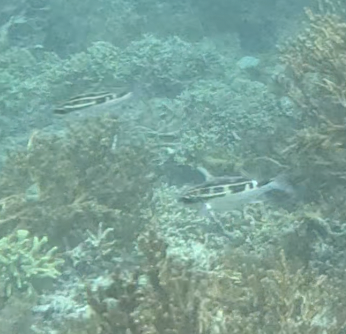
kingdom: Animalia
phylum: Chordata
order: Perciformes
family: Nemipteridae
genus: Scolopsis
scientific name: Scolopsis lineata
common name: Striped monocle bream
